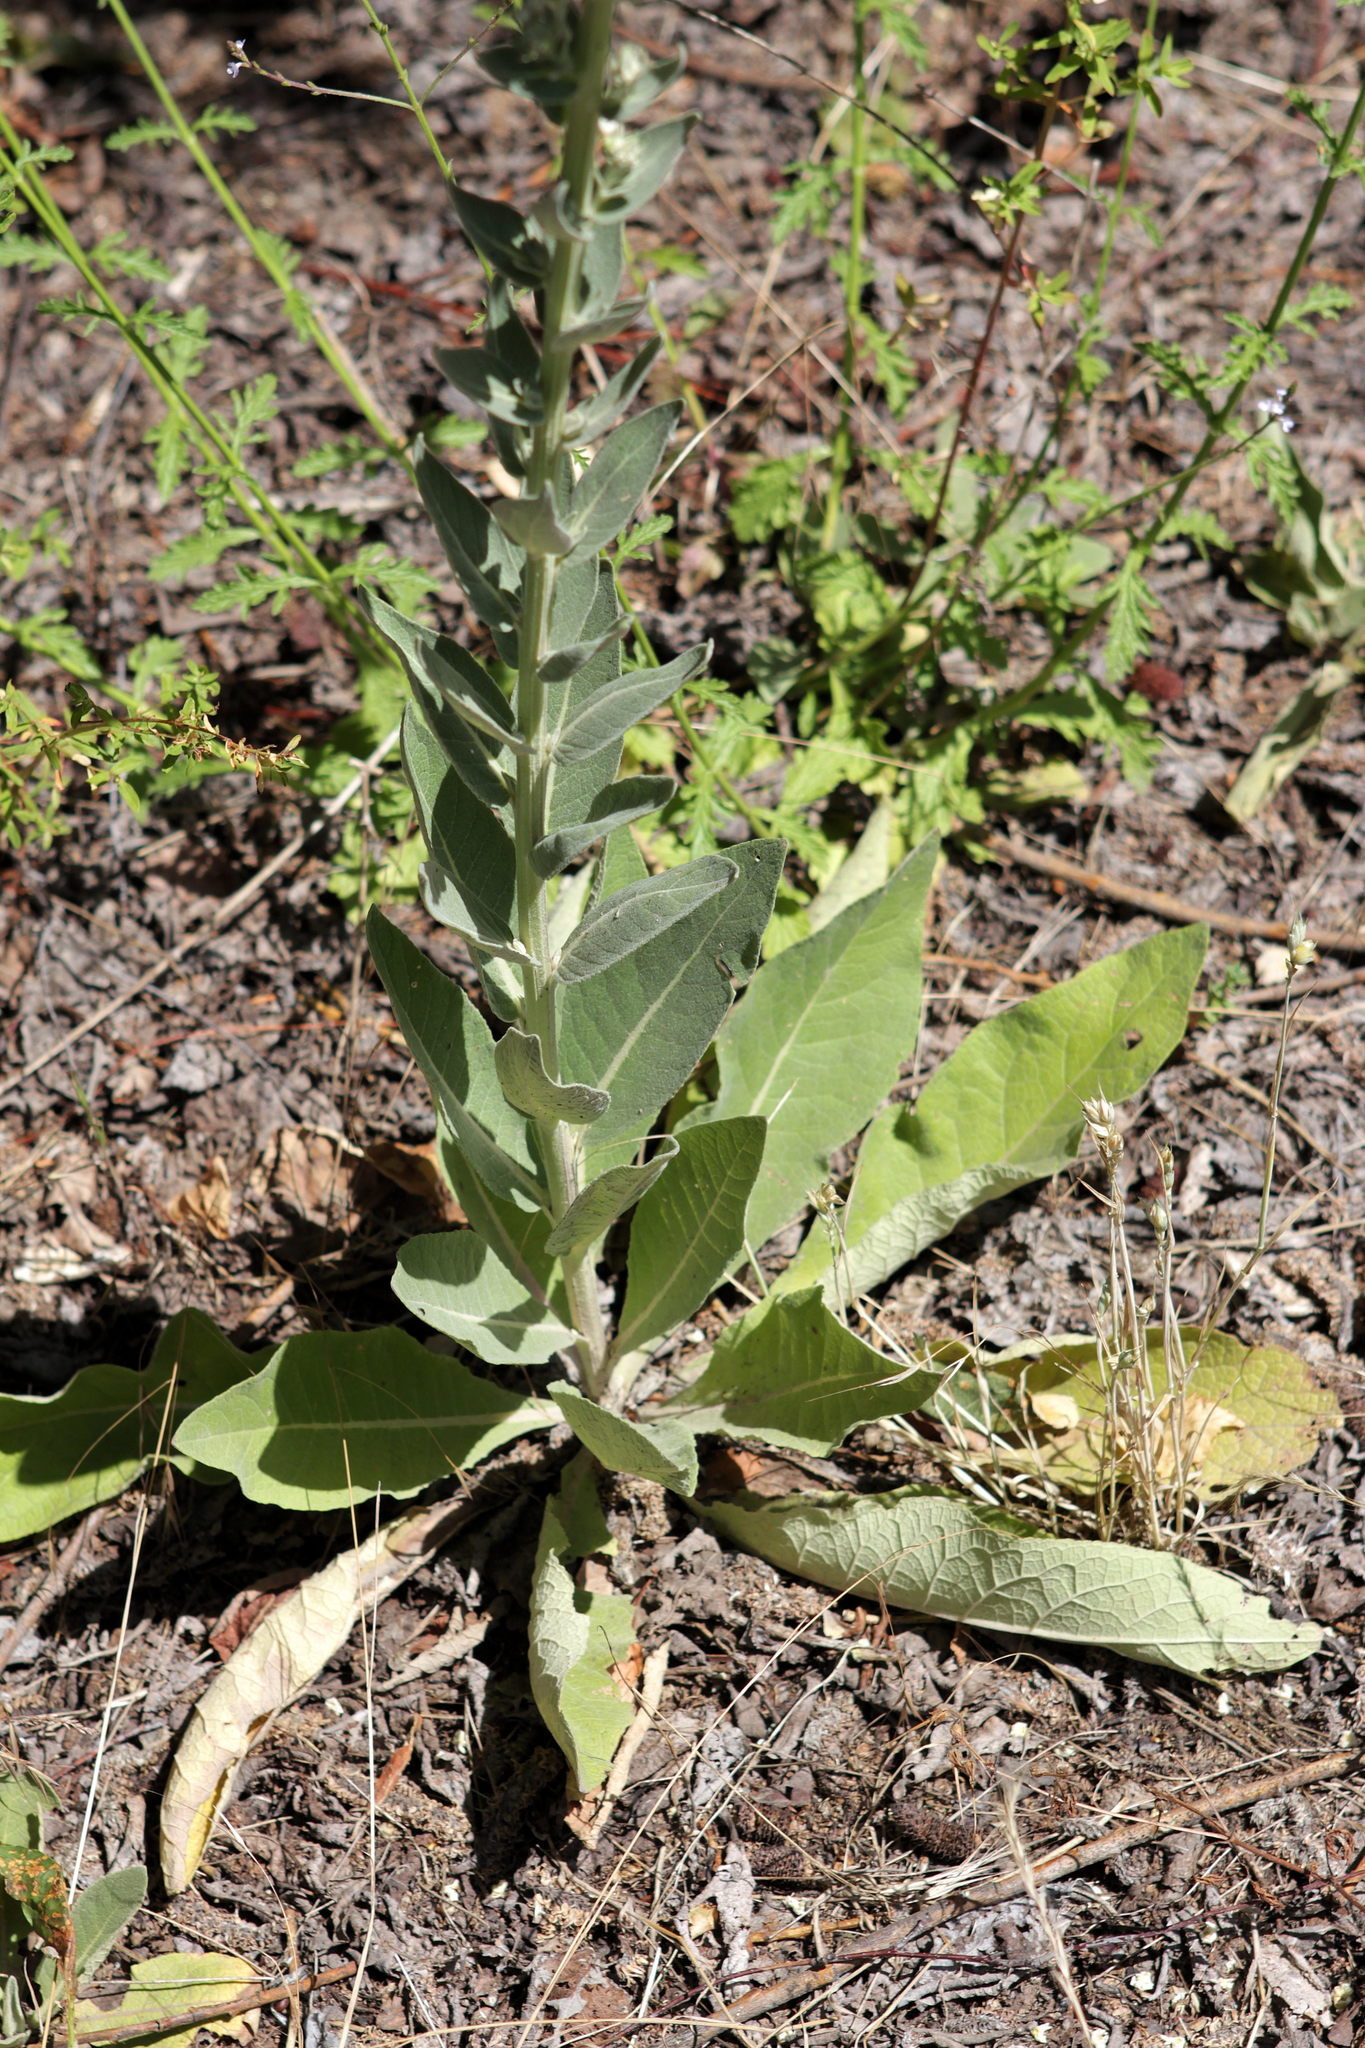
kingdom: Plantae
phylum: Tracheophyta
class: Magnoliopsida
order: Lamiales
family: Scrophulariaceae
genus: Verbascum
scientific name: Verbascum lychnitis
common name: White mullein
